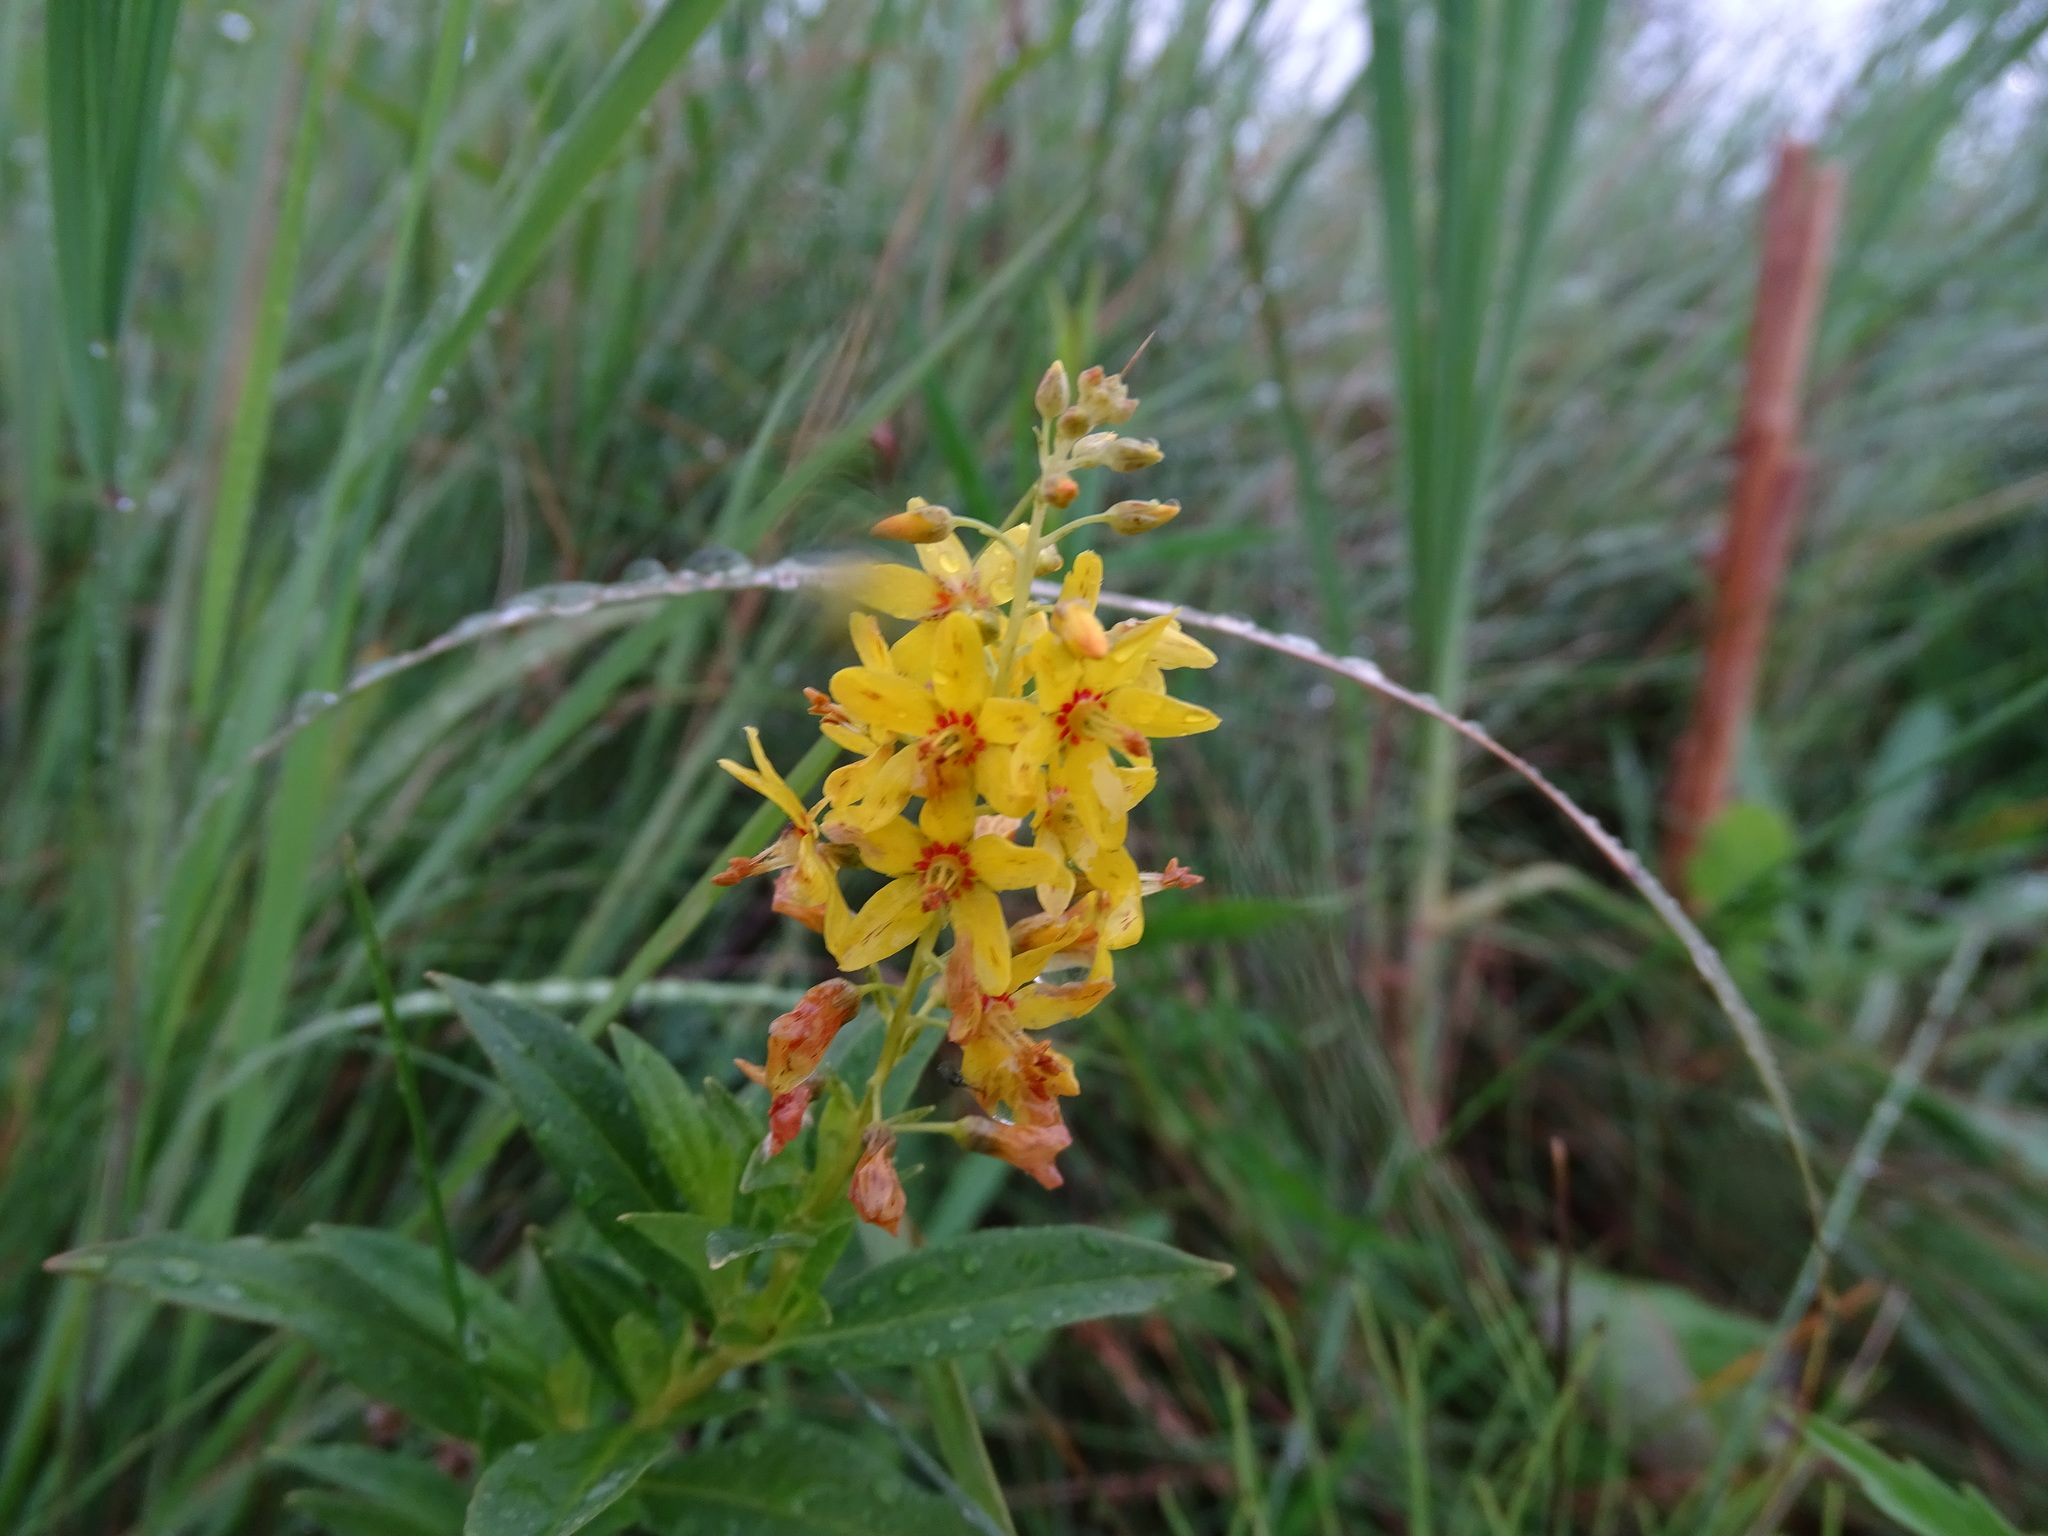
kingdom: Plantae
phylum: Tracheophyta
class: Magnoliopsida
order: Ericales
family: Primulaceae
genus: Lysimachia
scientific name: Lysimachia terrestris
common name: Lake loosestrife
